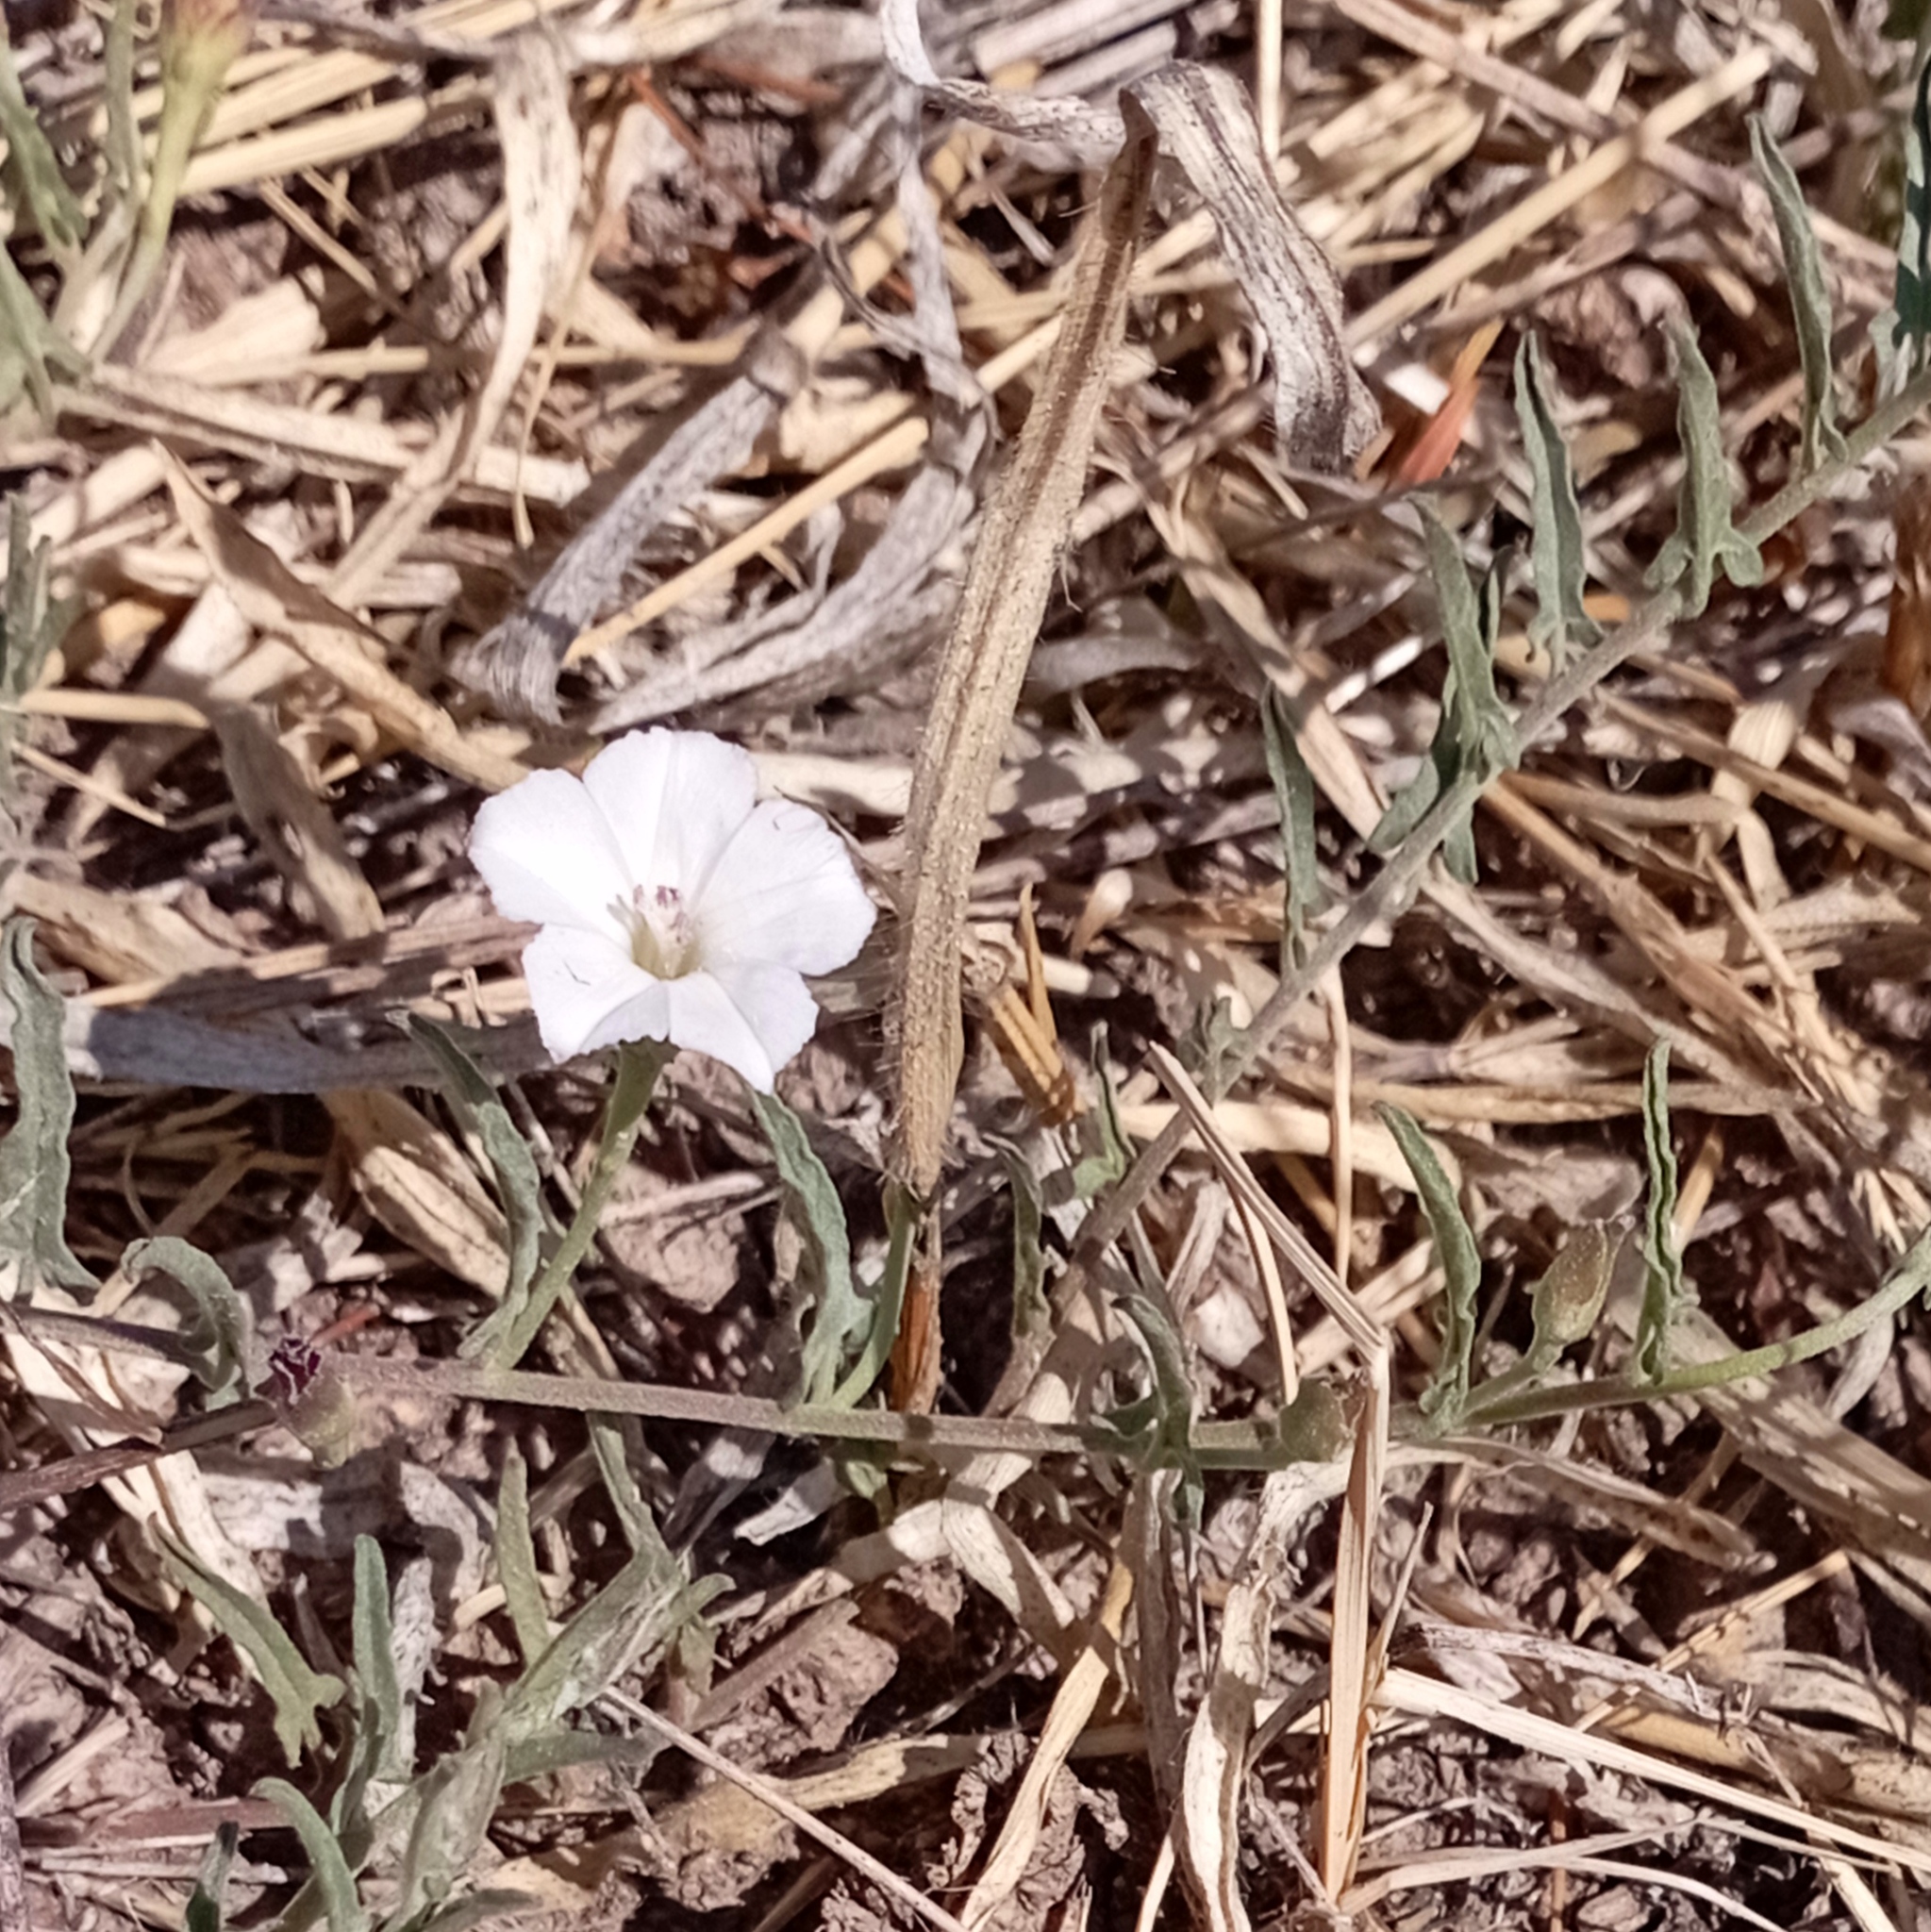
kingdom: Plantae
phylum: Tracheophyta
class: Magnoliopsida
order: Solanales
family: Convolvulaceae
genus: Convolvulus
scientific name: Convolvulus equitans
